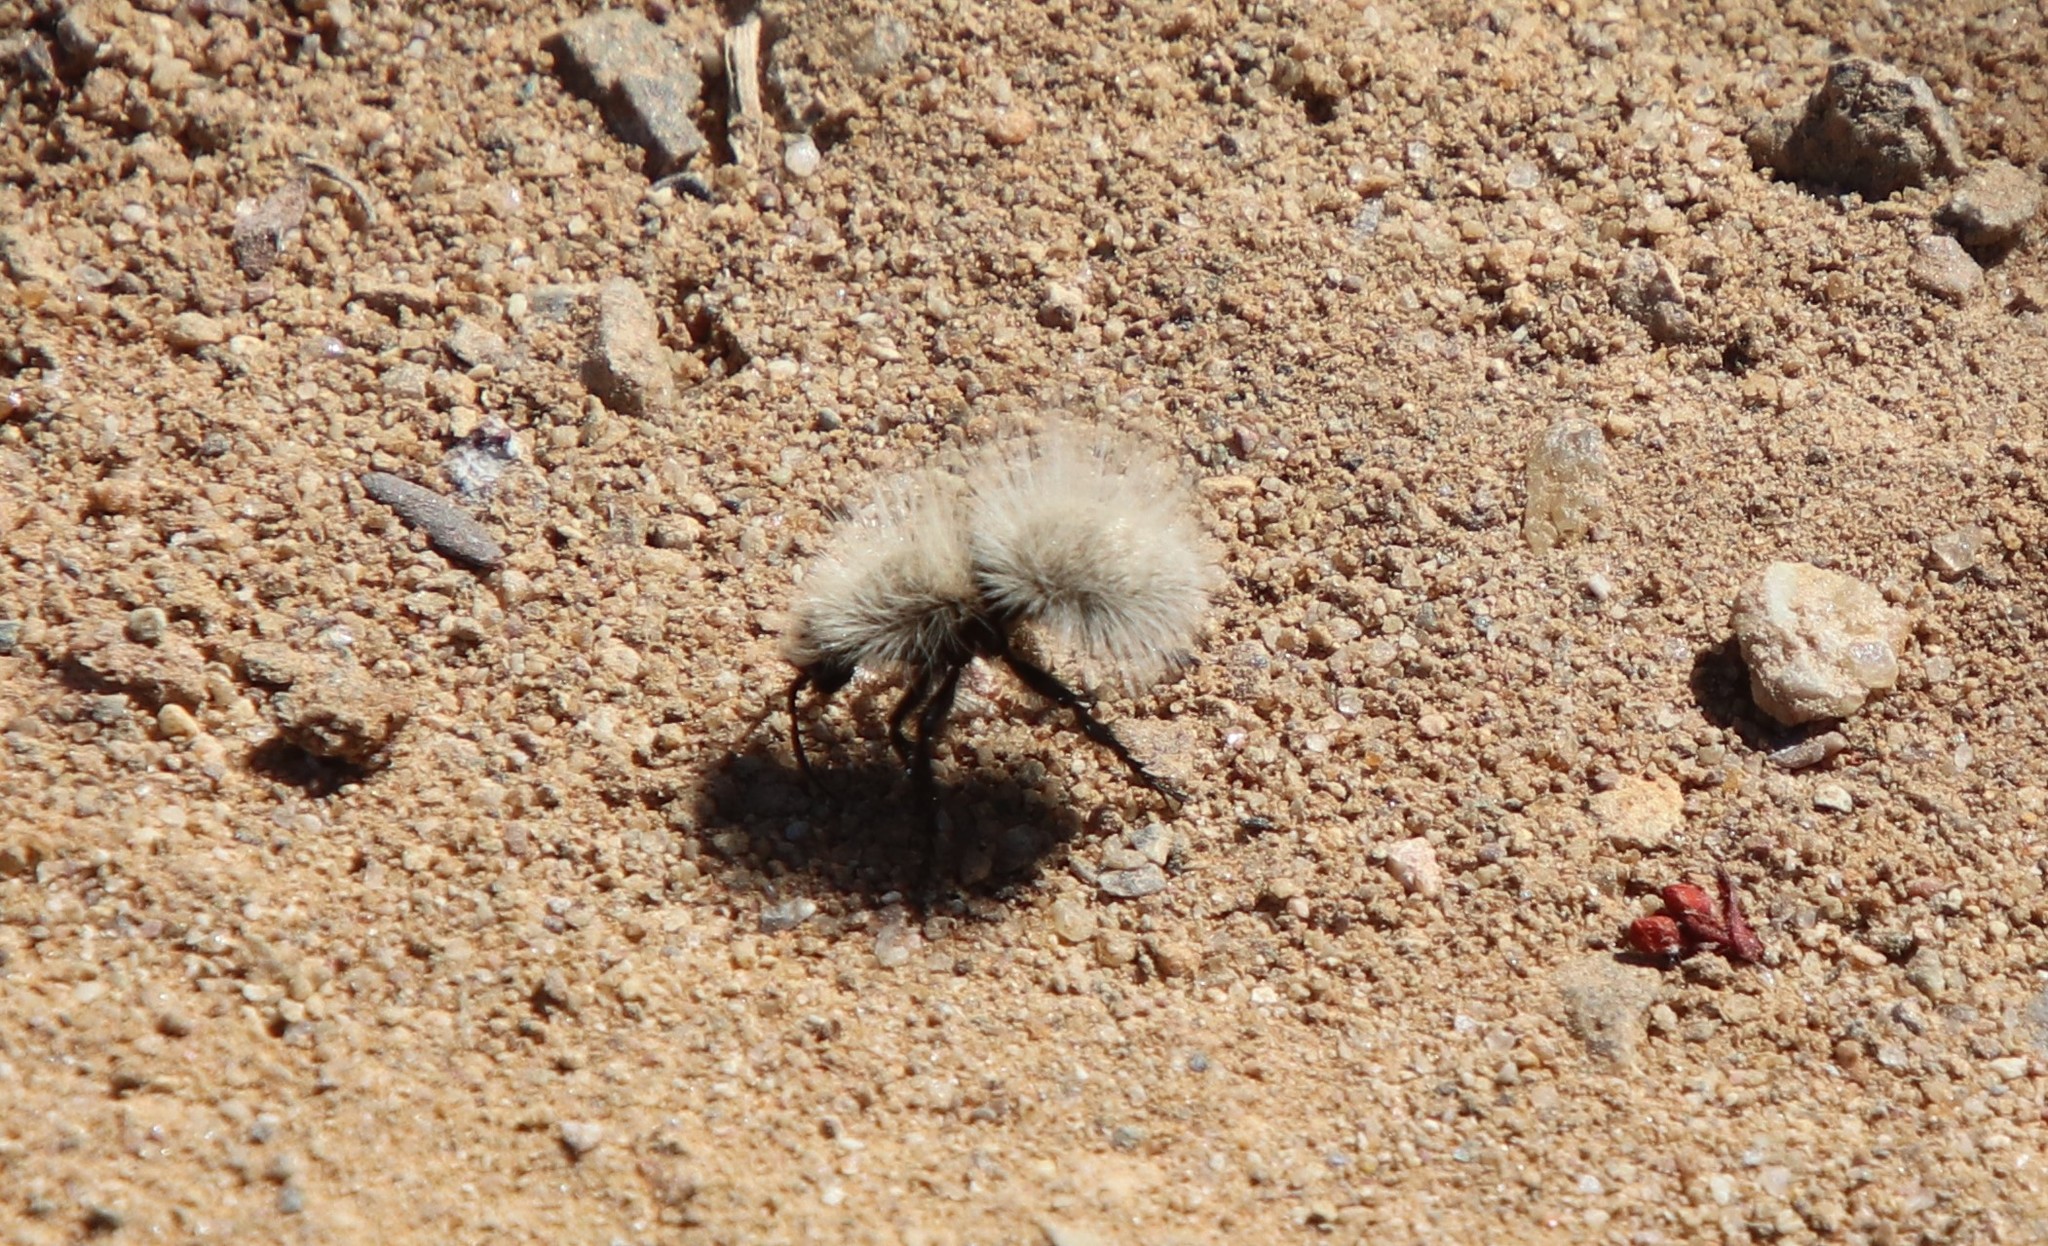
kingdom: Animalia
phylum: Arthropoda
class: Insecta
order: Hymenoptera
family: Mutillidae
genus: Dasymutilla
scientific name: Dasymutilla
